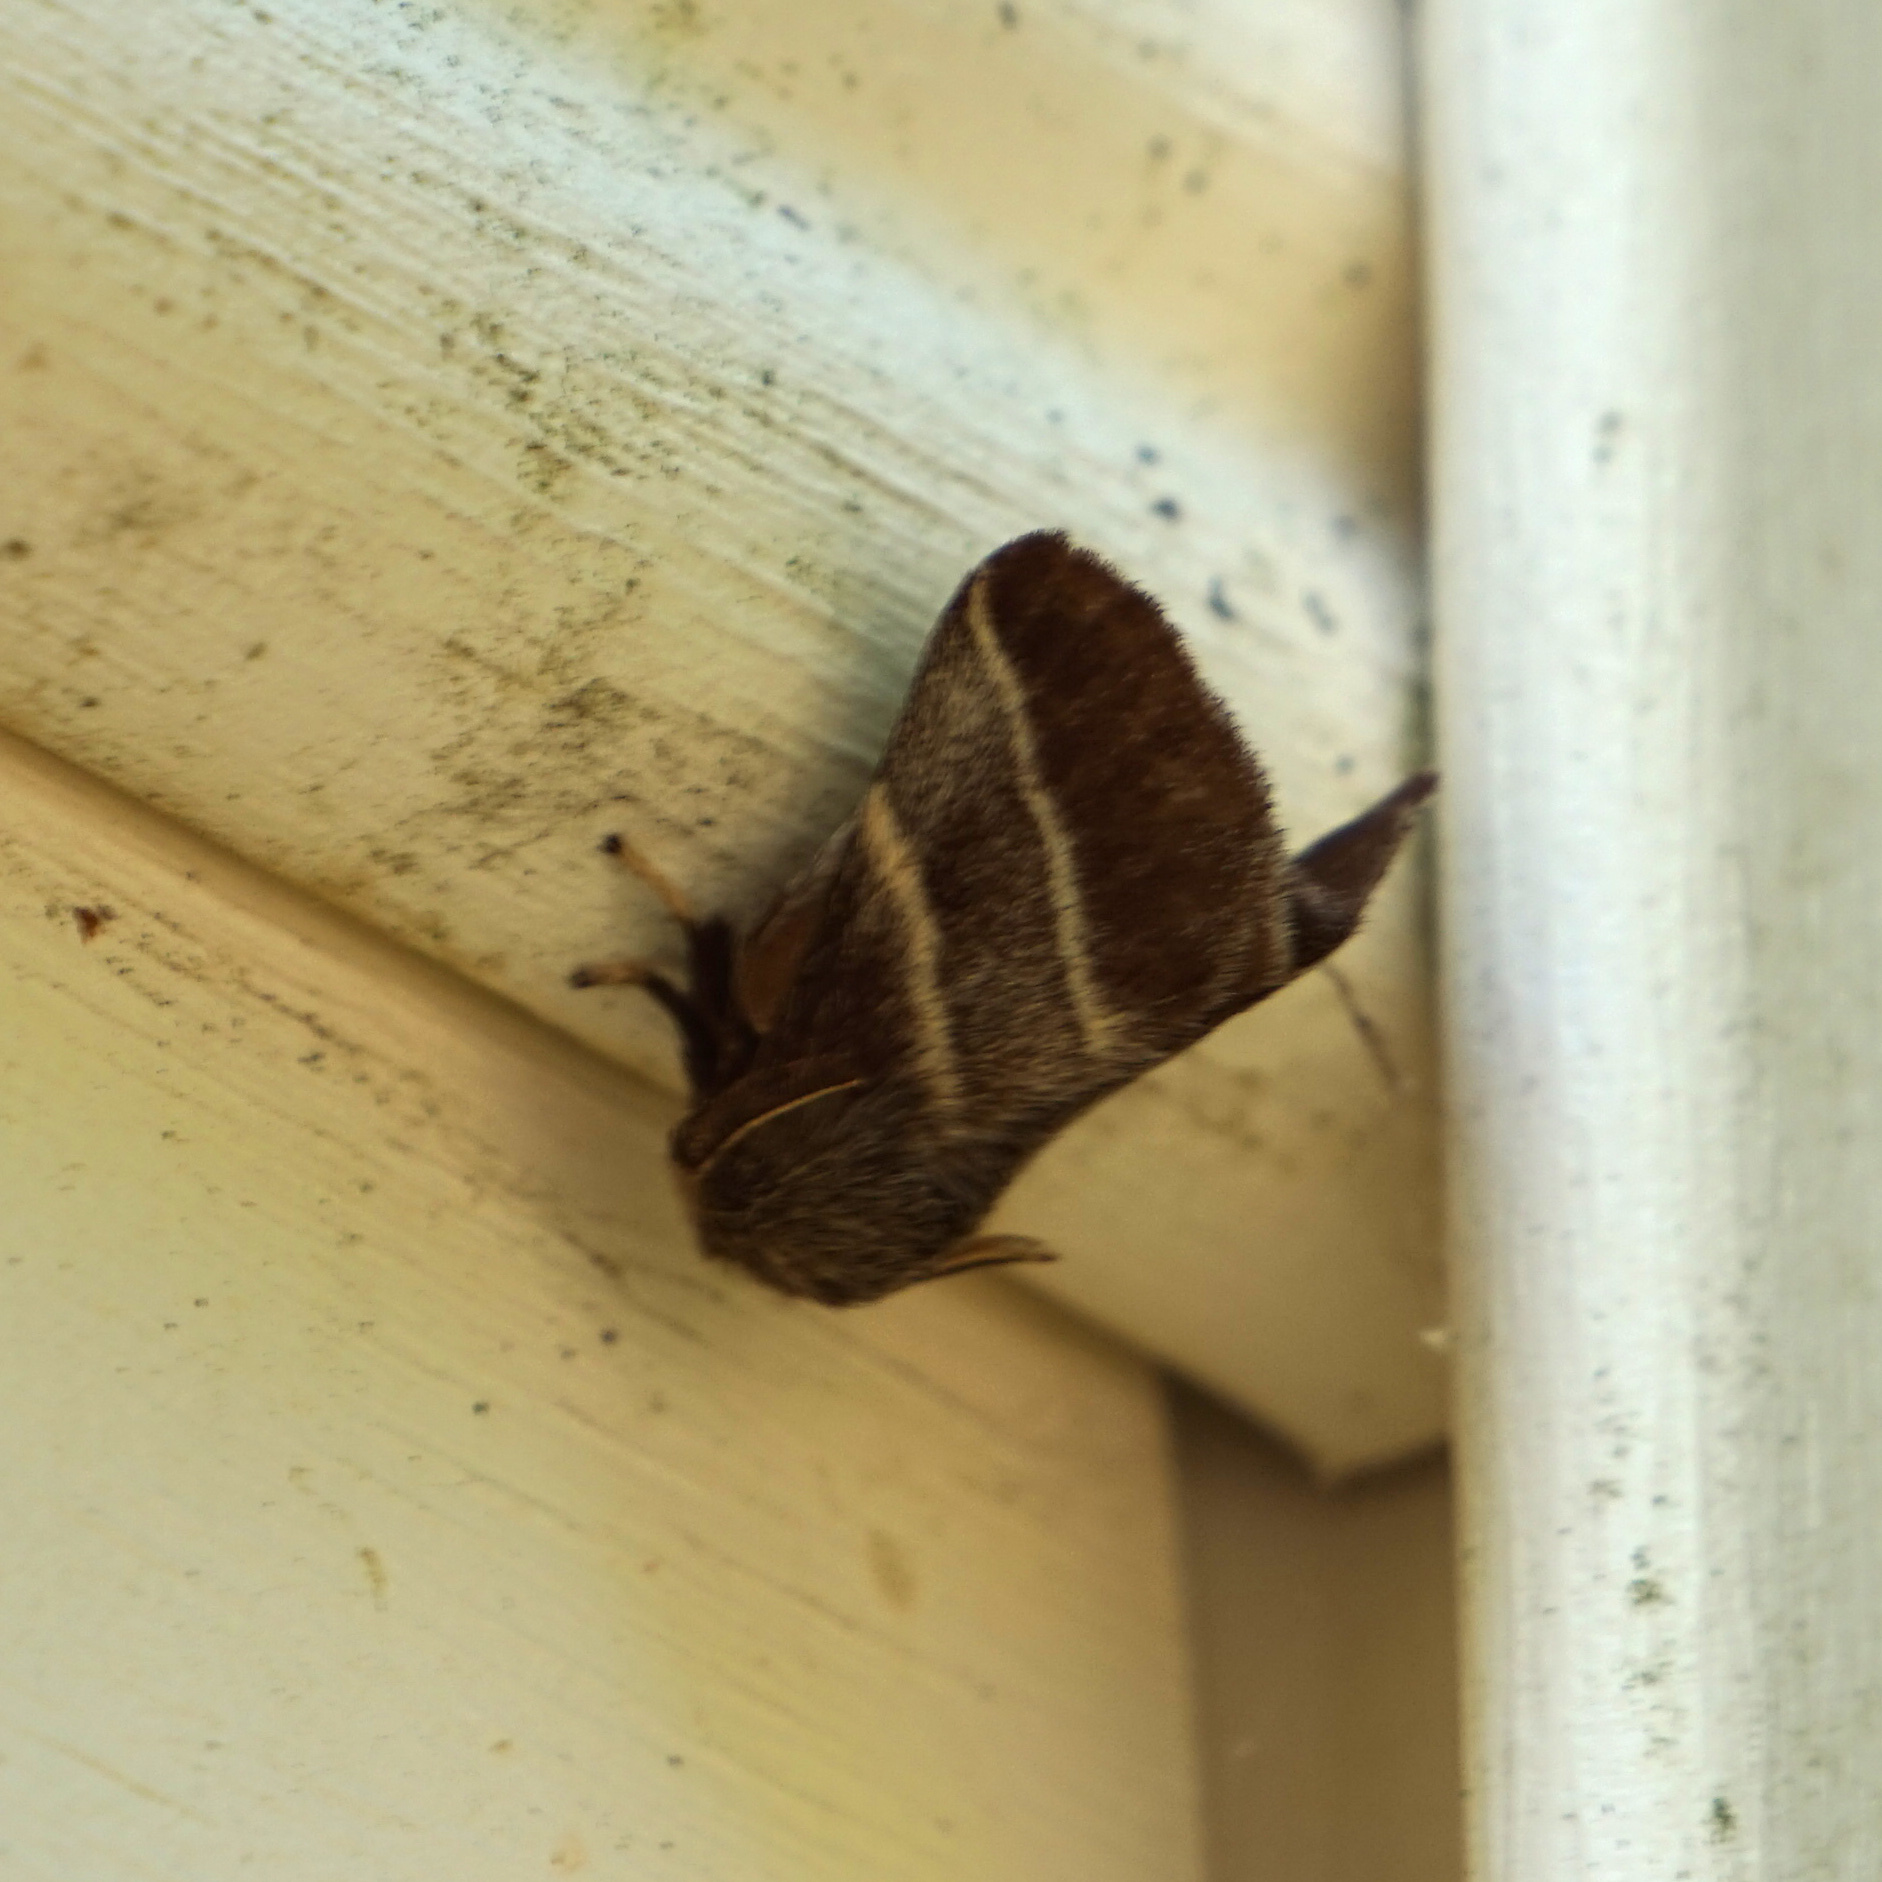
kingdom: Animalia
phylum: Arthropoda
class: Insecta
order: Lepidoptera
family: Lasiocampidae
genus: Malacosoma
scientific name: Malacosoma americana
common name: Eastern tent caterpillar moth
